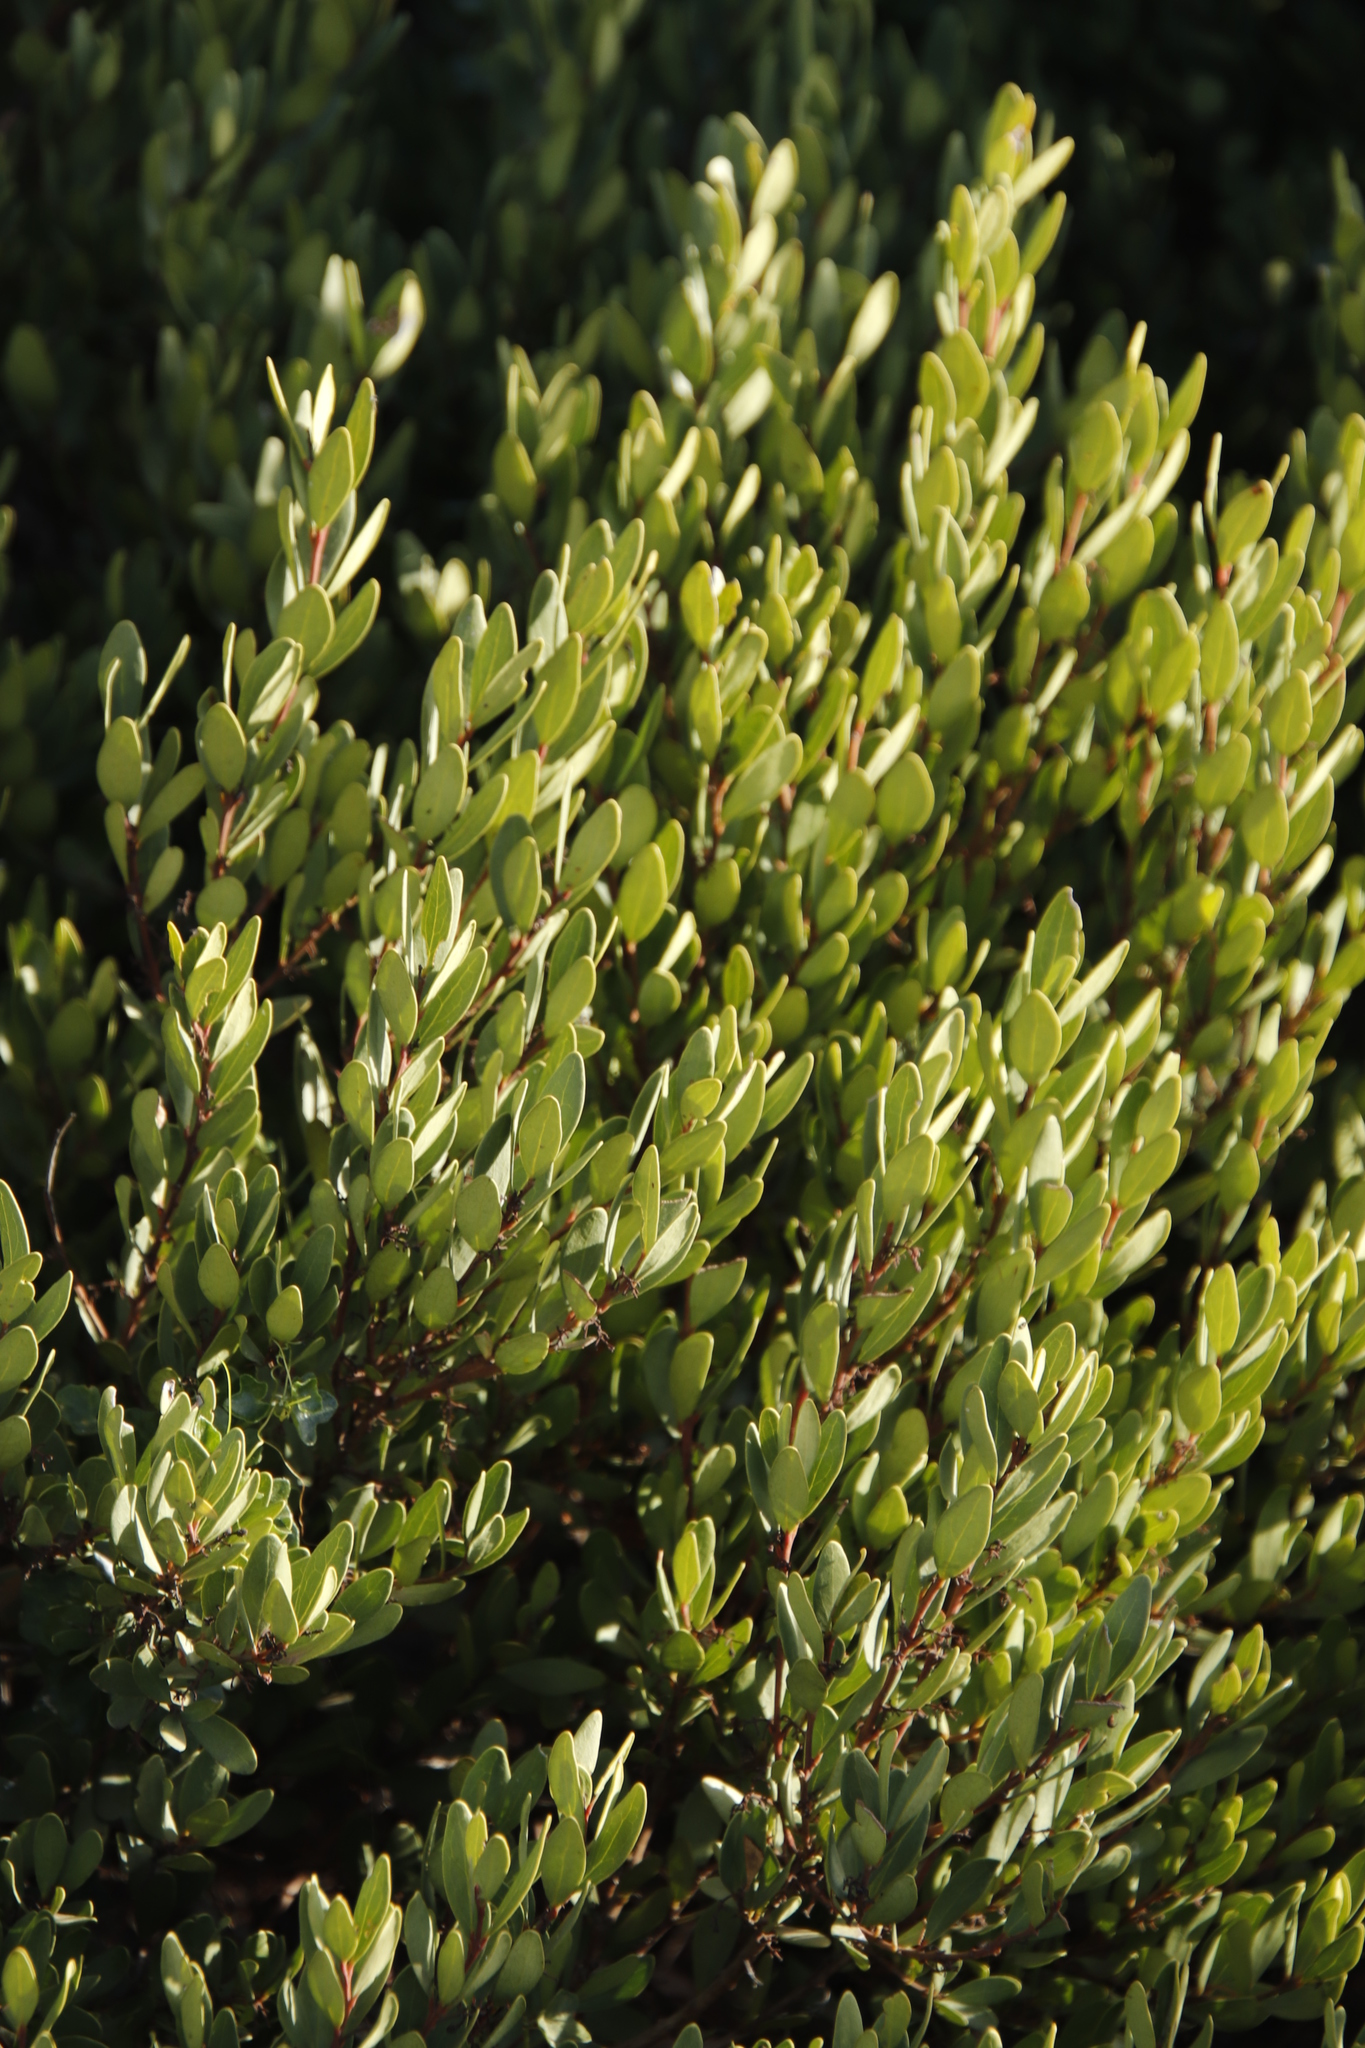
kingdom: Plantae
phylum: Tracheophyta
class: Magnoliopsida
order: Ericales
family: Ebenaceae
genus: Euclea
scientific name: Euclea racemosa
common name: Dune guarri
